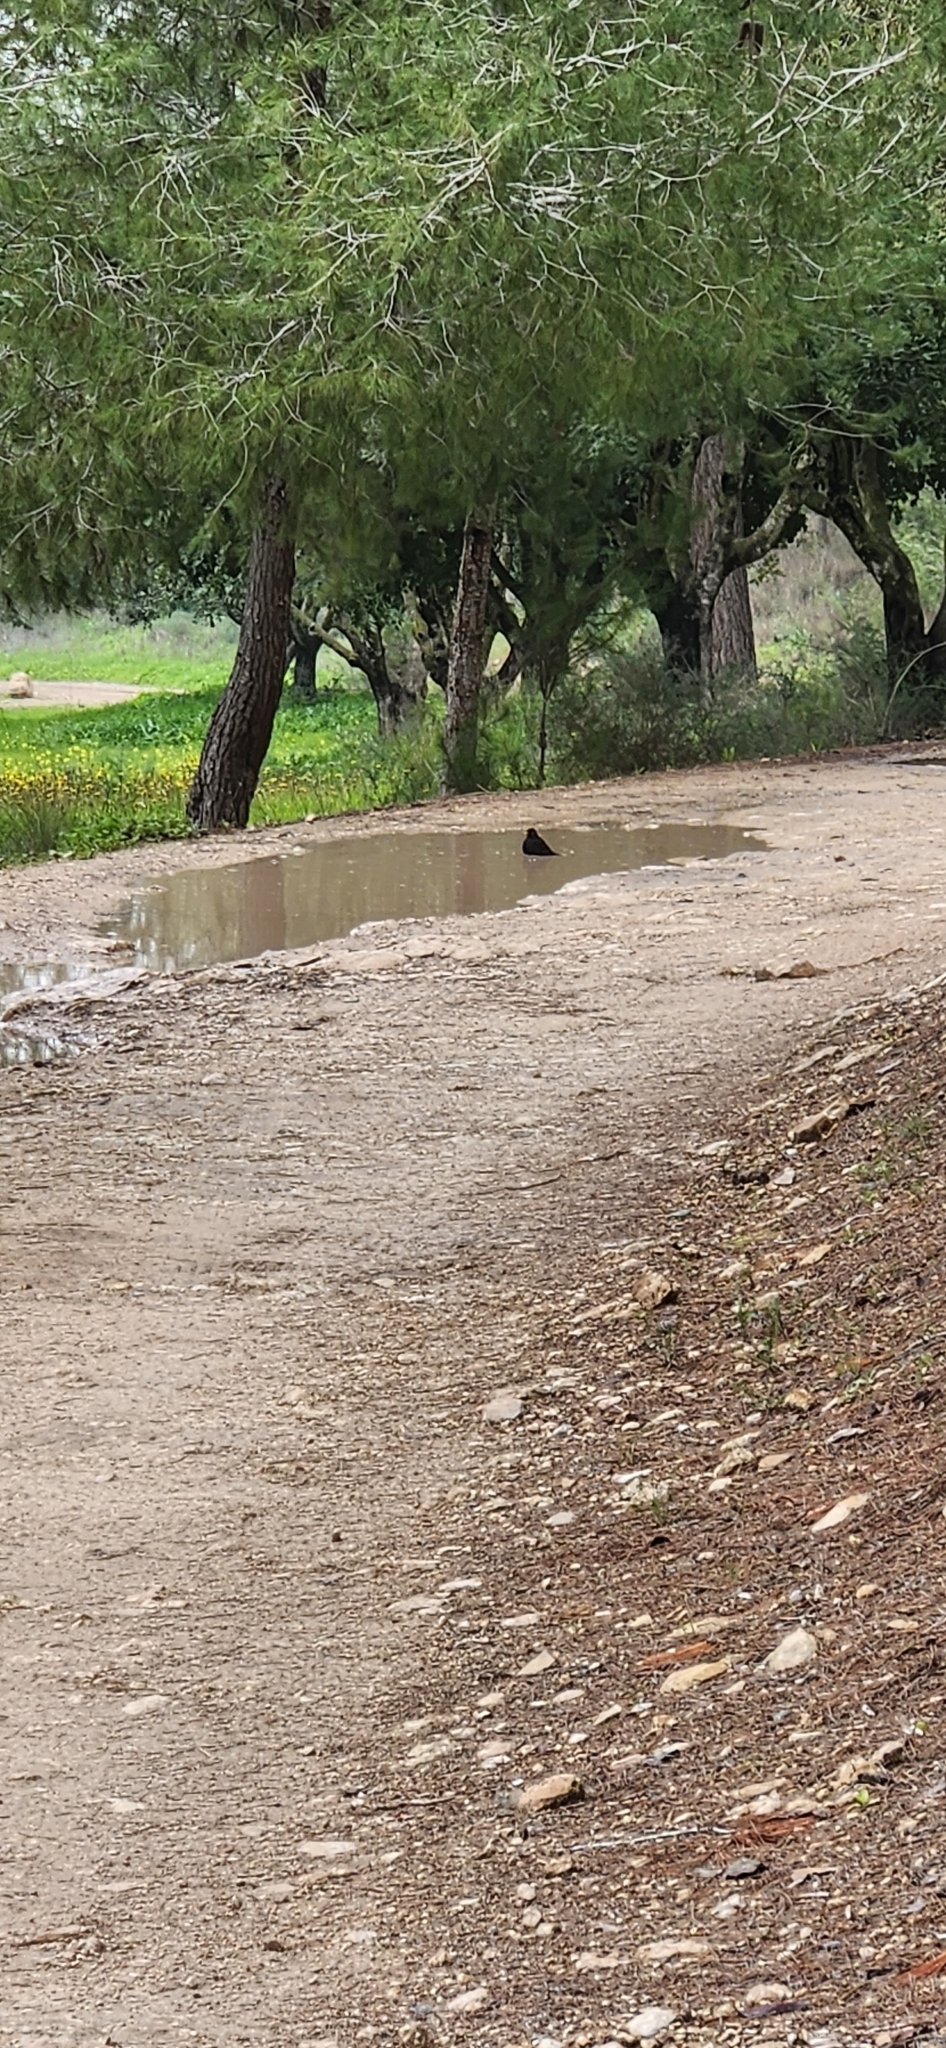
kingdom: Animalia
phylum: Chordata
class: Aves
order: Passeriformes
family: Turdidae
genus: Turdus
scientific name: Turdus merula
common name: Common blackbird
